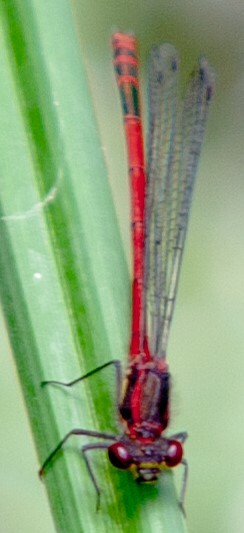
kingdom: Animalia
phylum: Arthropoda
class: Insecta
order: Odonata
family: Coenagrionidae
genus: Pyrrhosoma
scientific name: Pyrrhosoma nymphula
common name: Large red damsel
